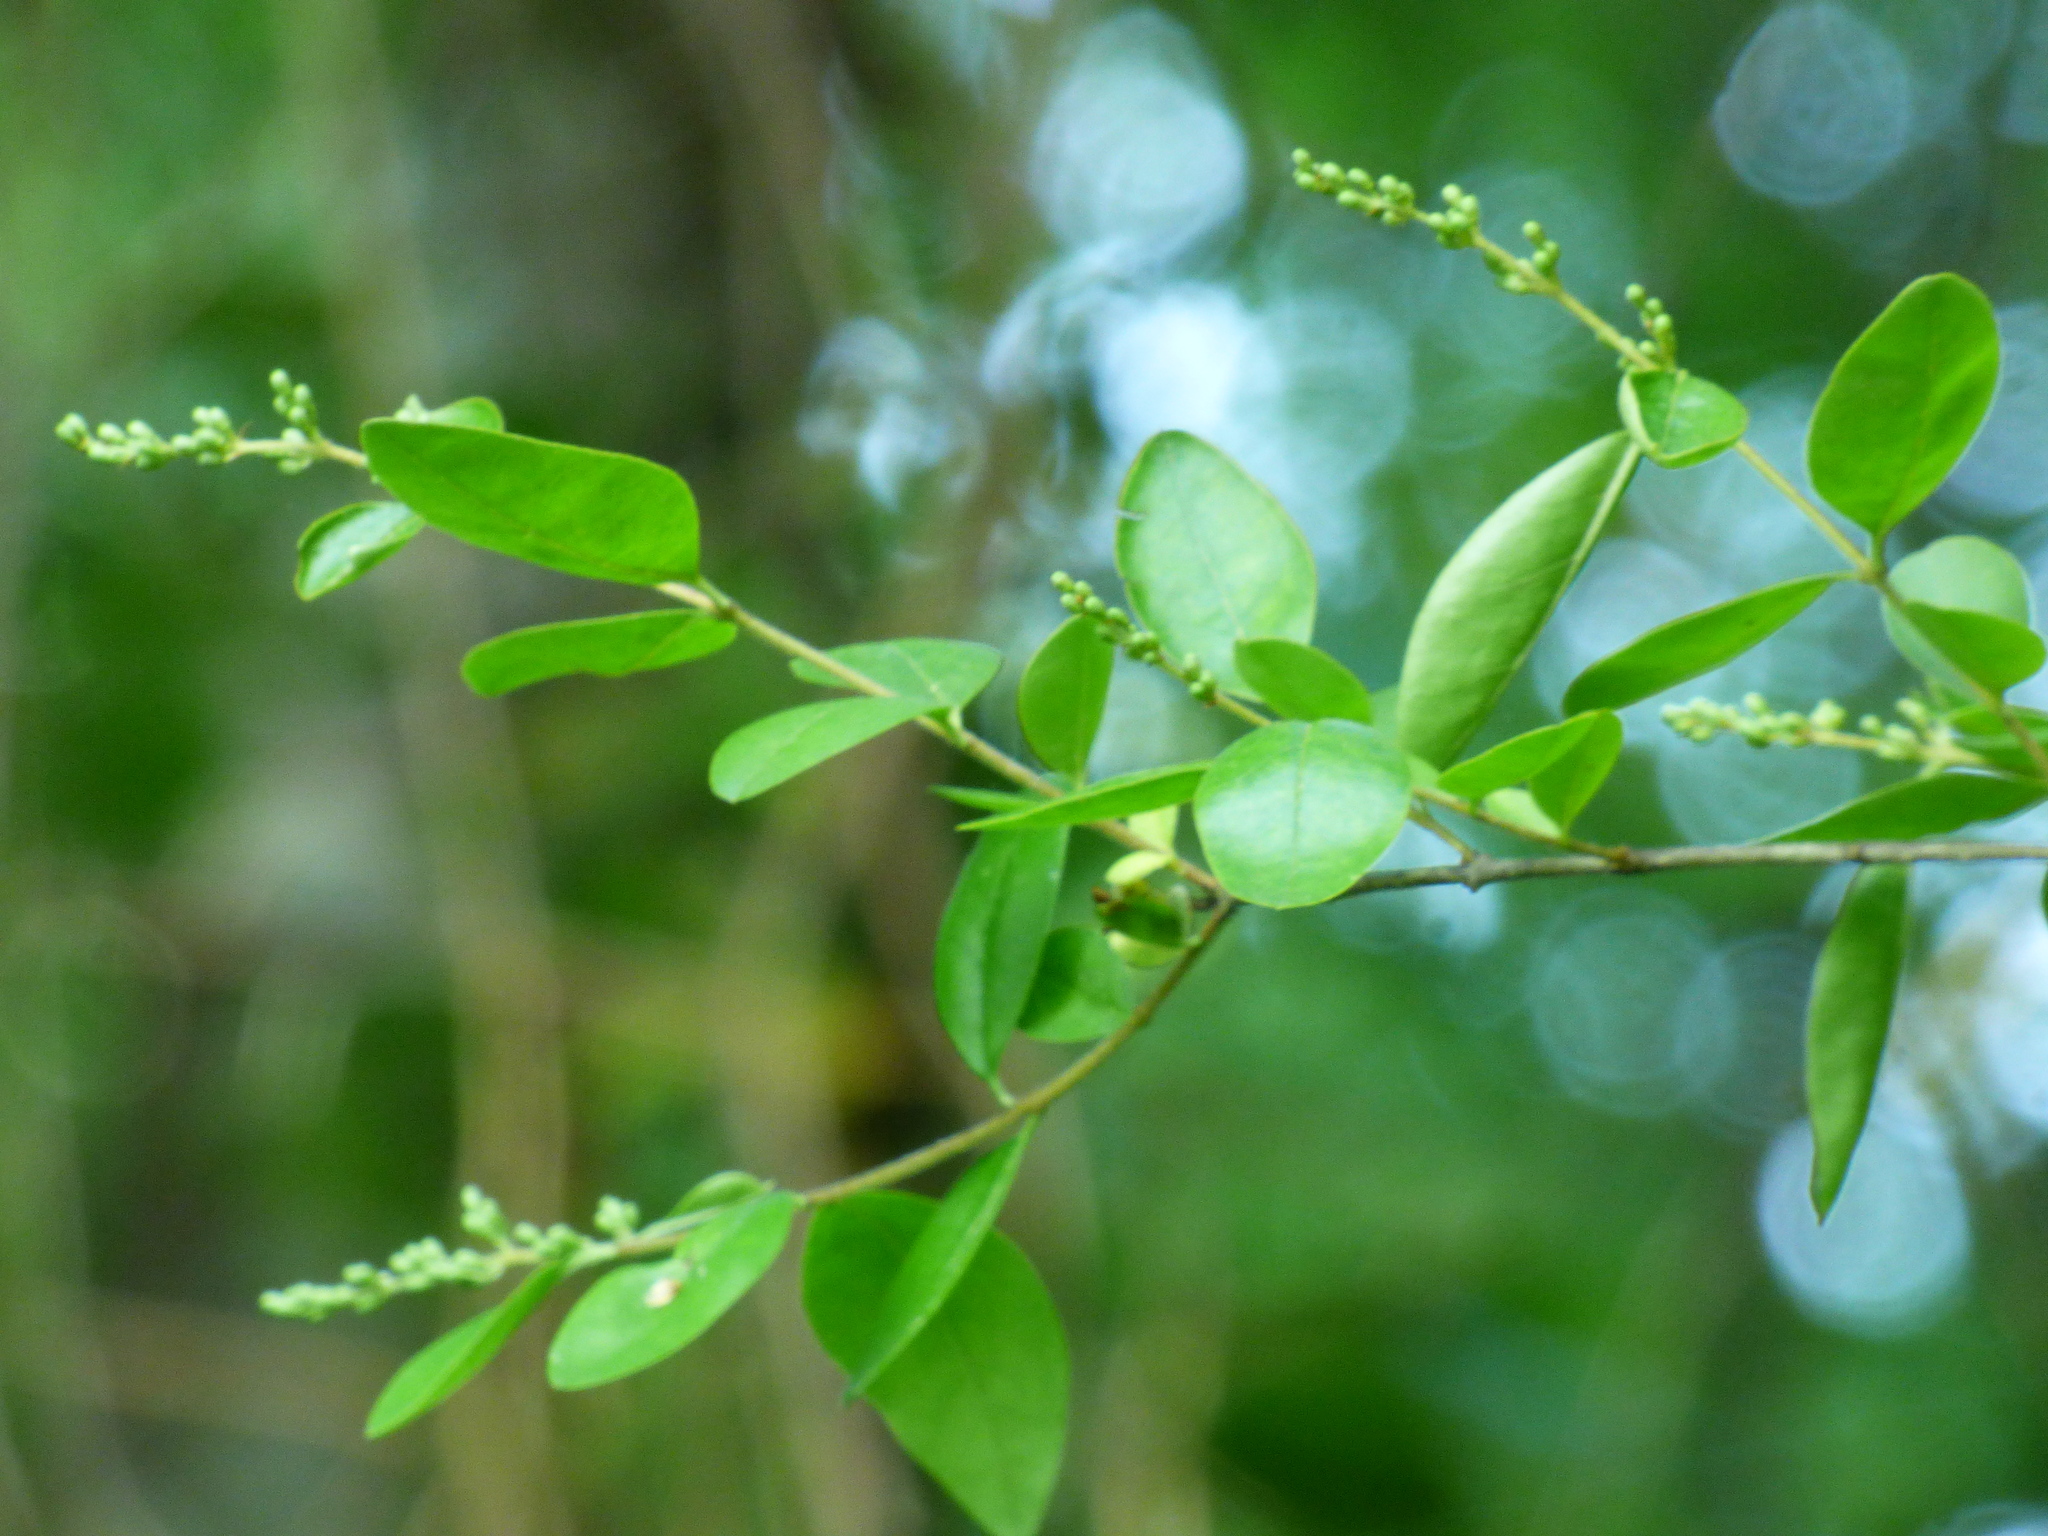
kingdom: Plantae
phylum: Tracheophyta
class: Magnoliopsida
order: Lamiales
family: Oleaceae
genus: Ligustrum
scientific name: Ligustrum sinense
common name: Chinese privet
